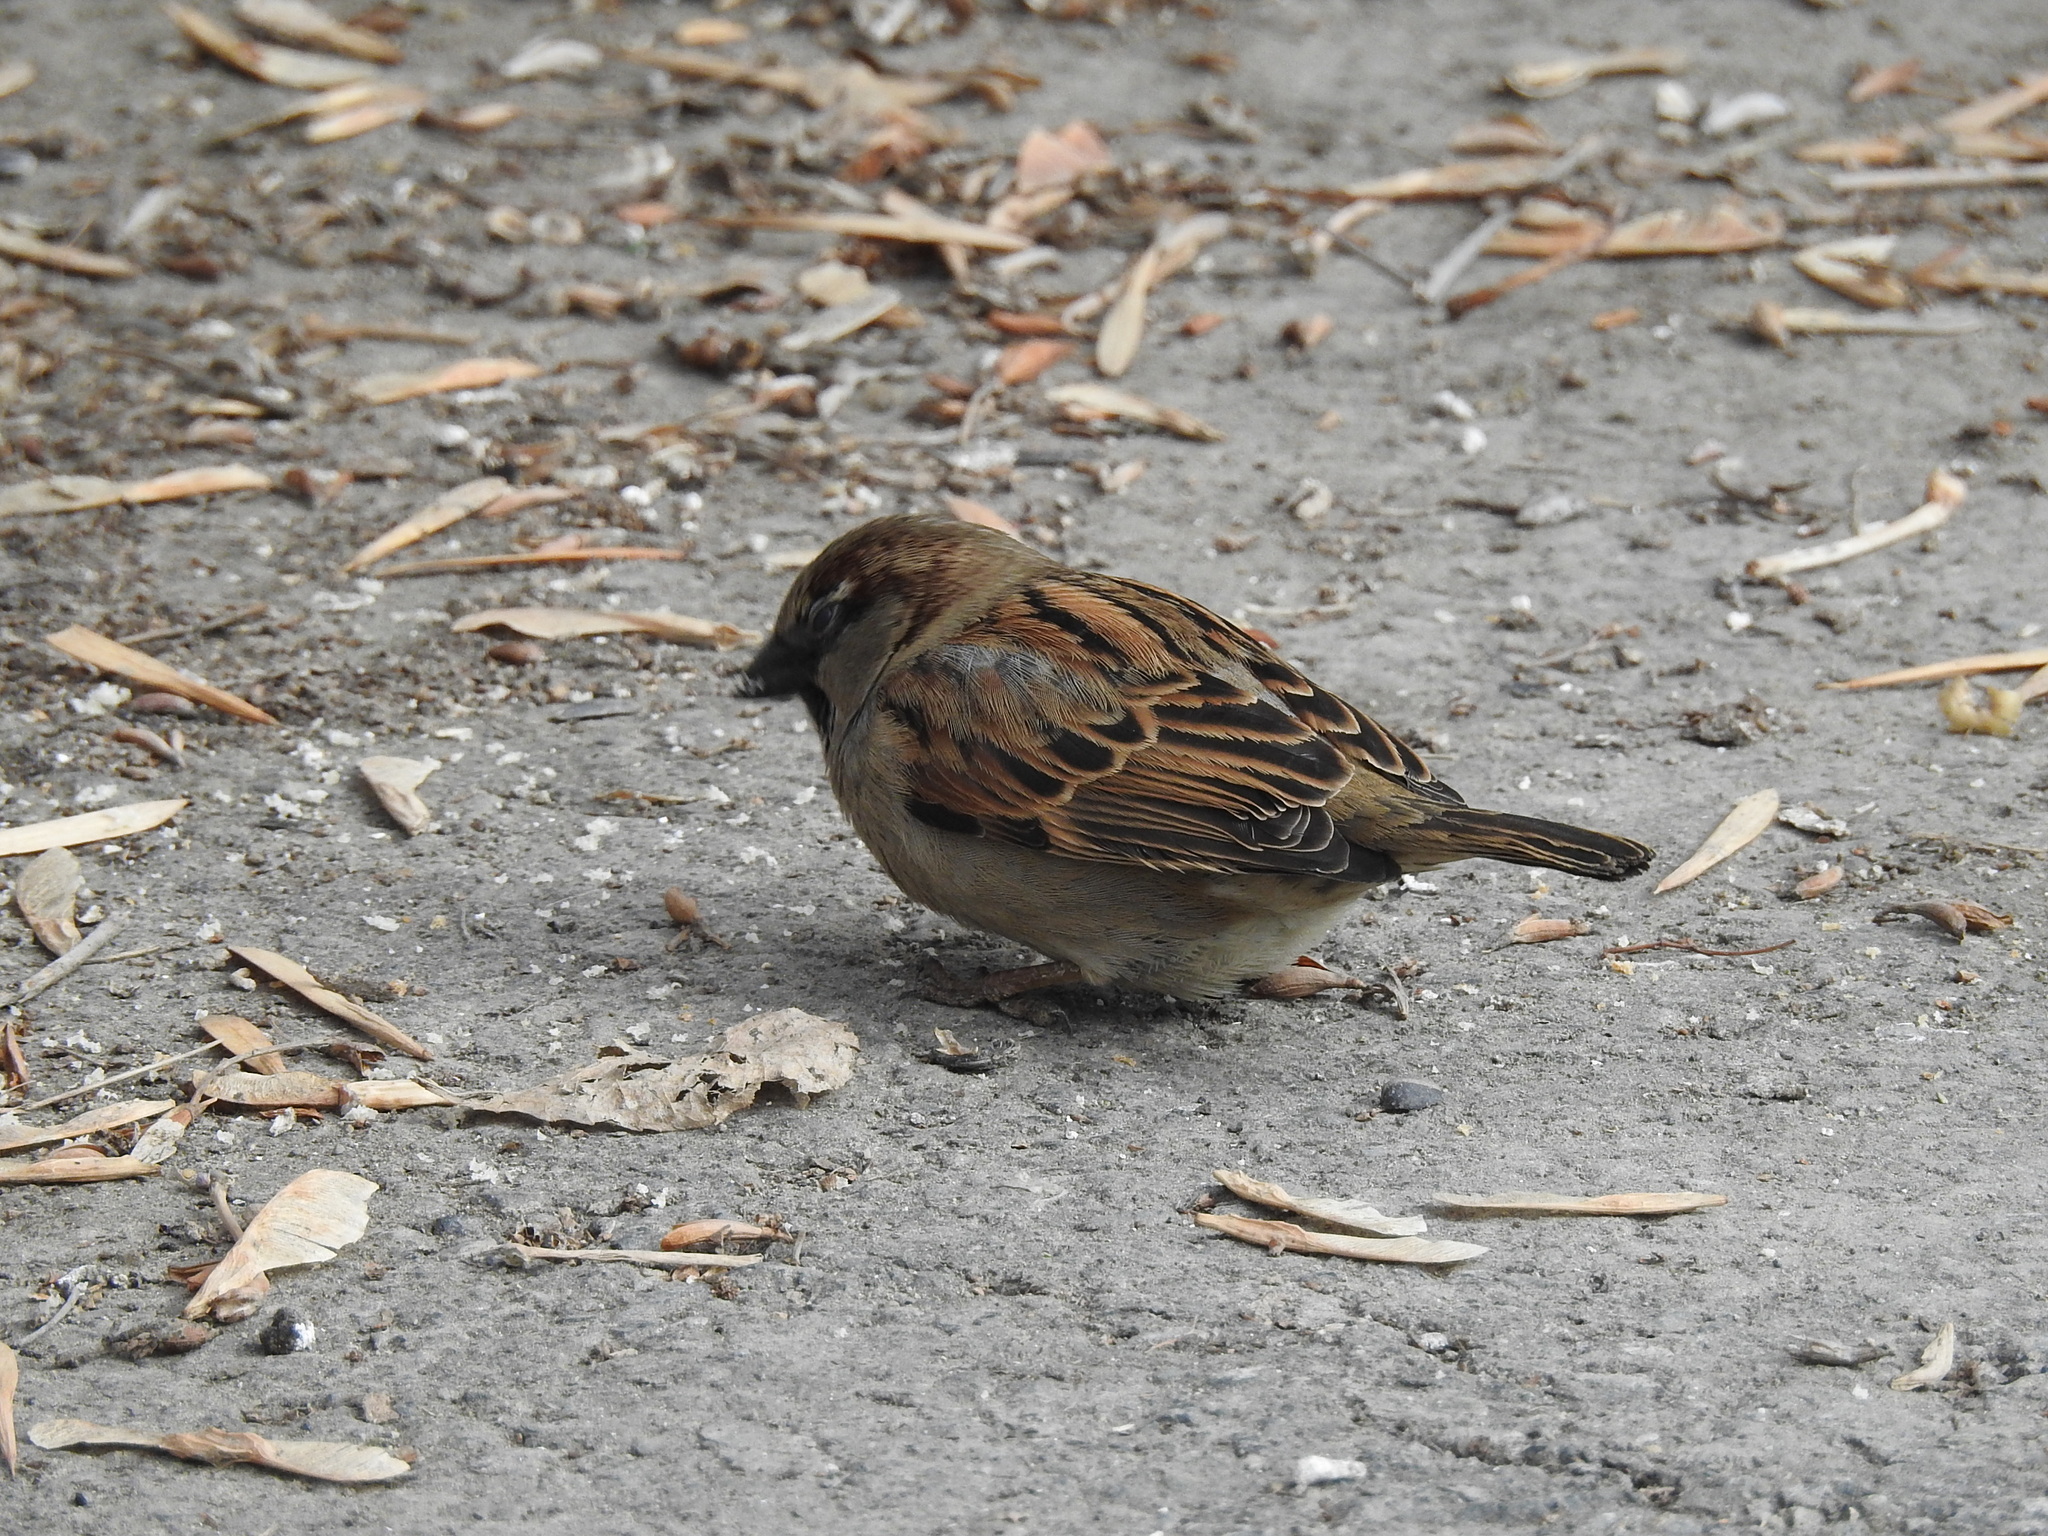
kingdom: Animalia
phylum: Chordata
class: Aves
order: Passeriformes
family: Passeridae
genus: Passer
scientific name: Passer domesticus
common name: House sparrow
